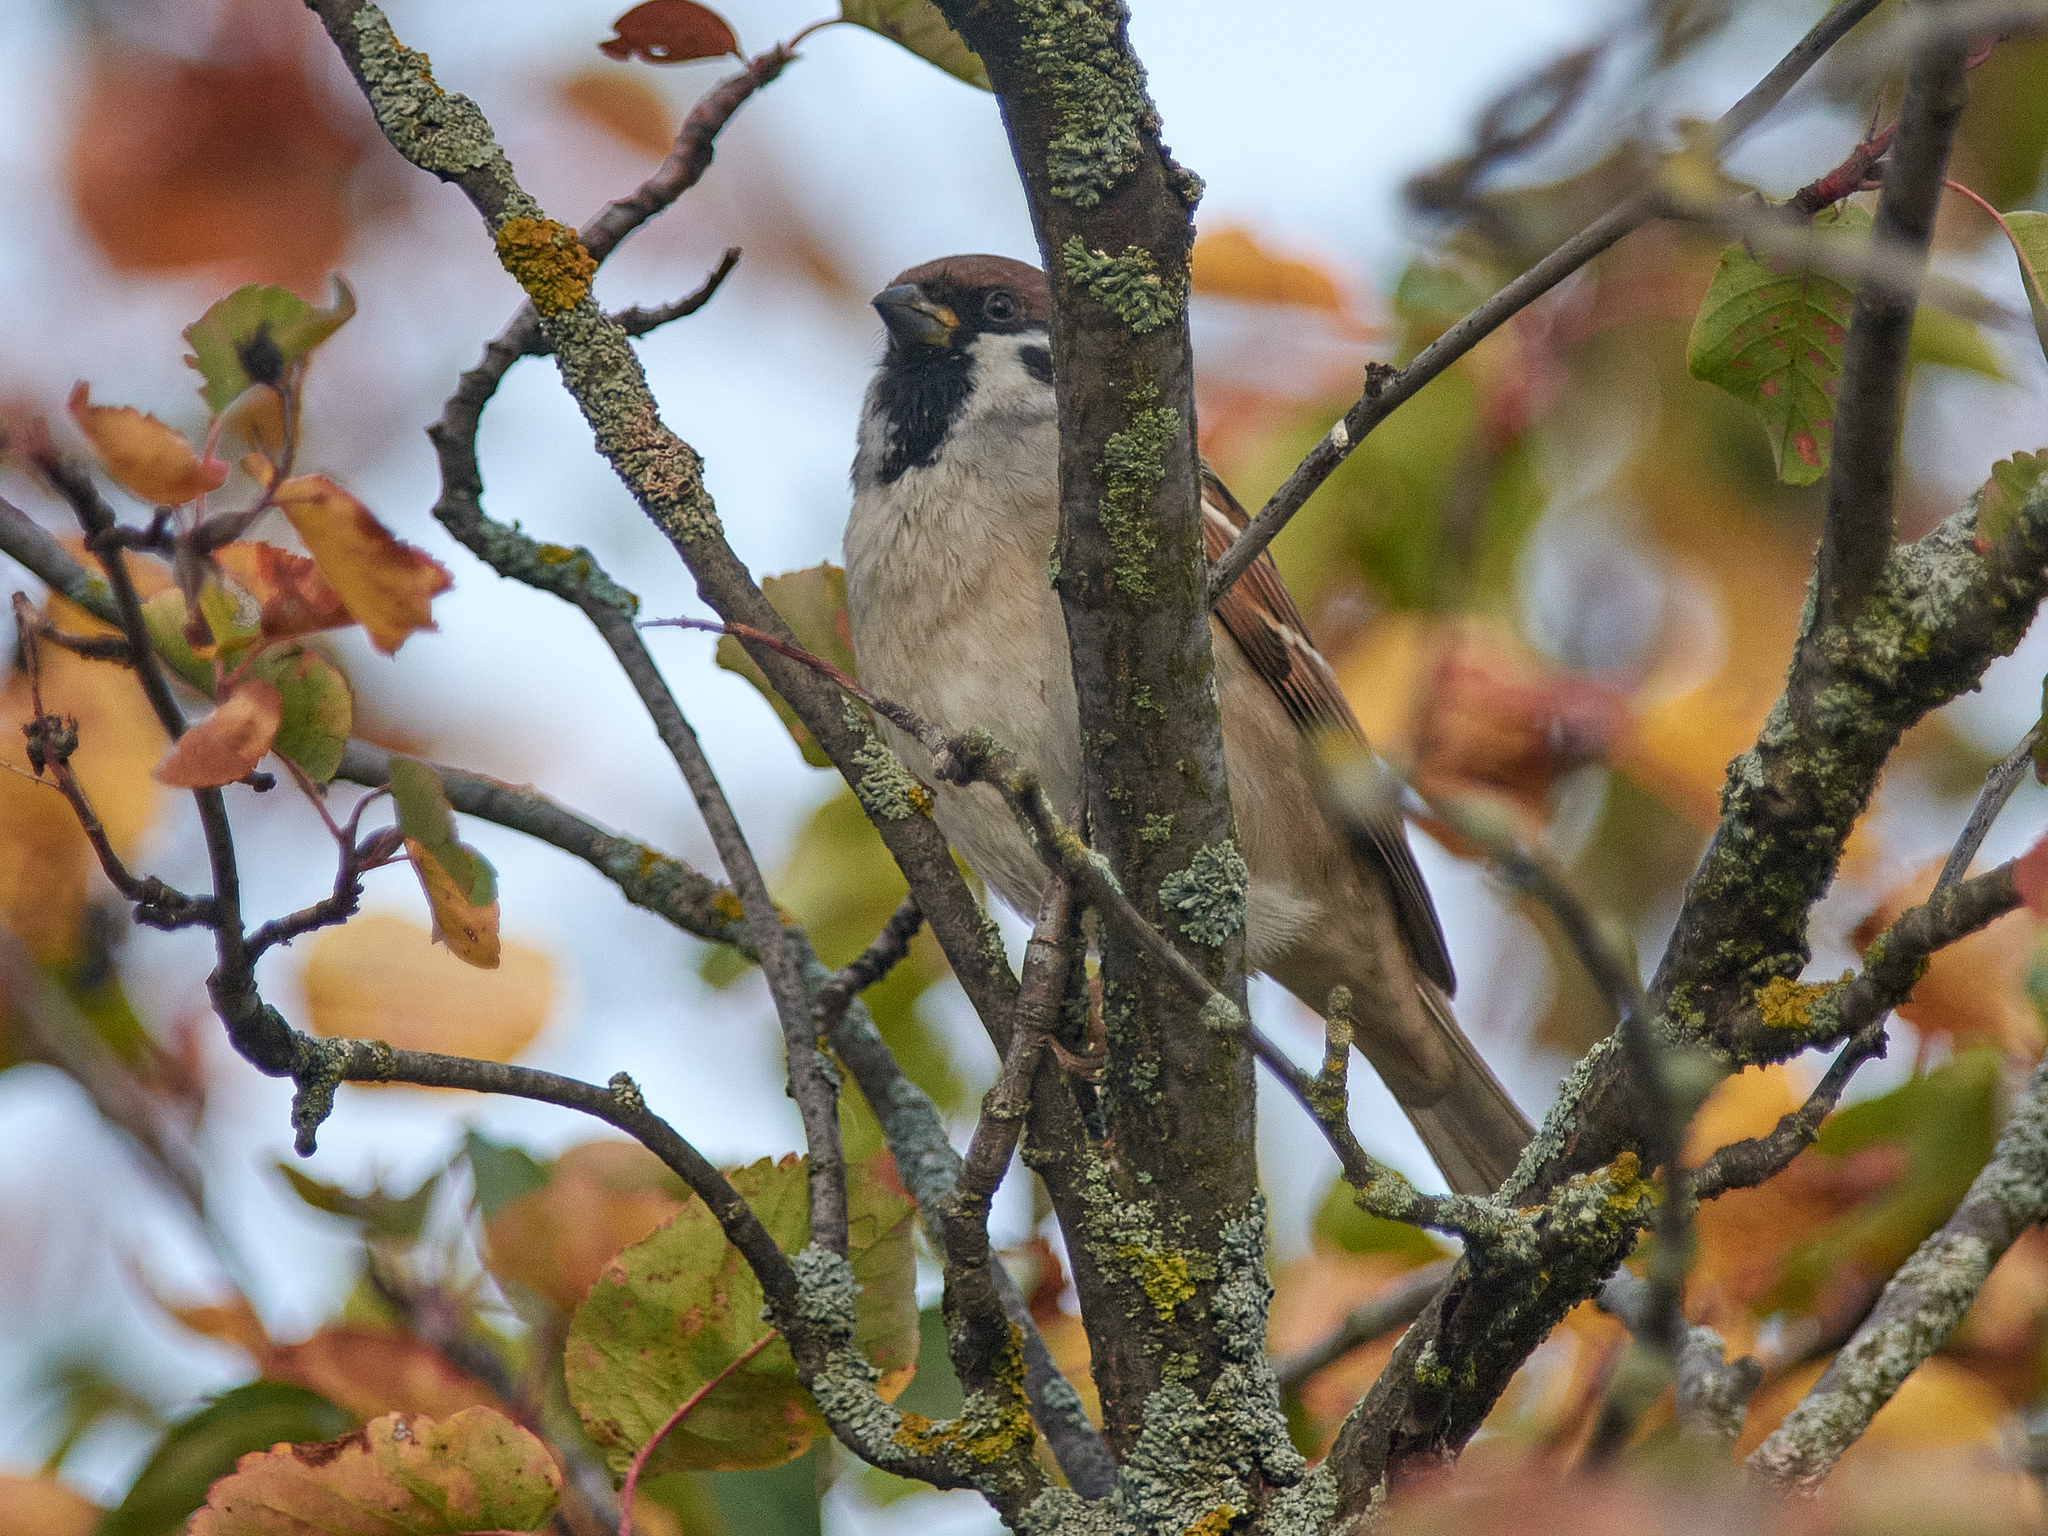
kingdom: Animalia
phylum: Chordata
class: Aves
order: Passeriformes
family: Passeridae
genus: Passer
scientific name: Passer montanus
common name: Eurasian tree sparrow
